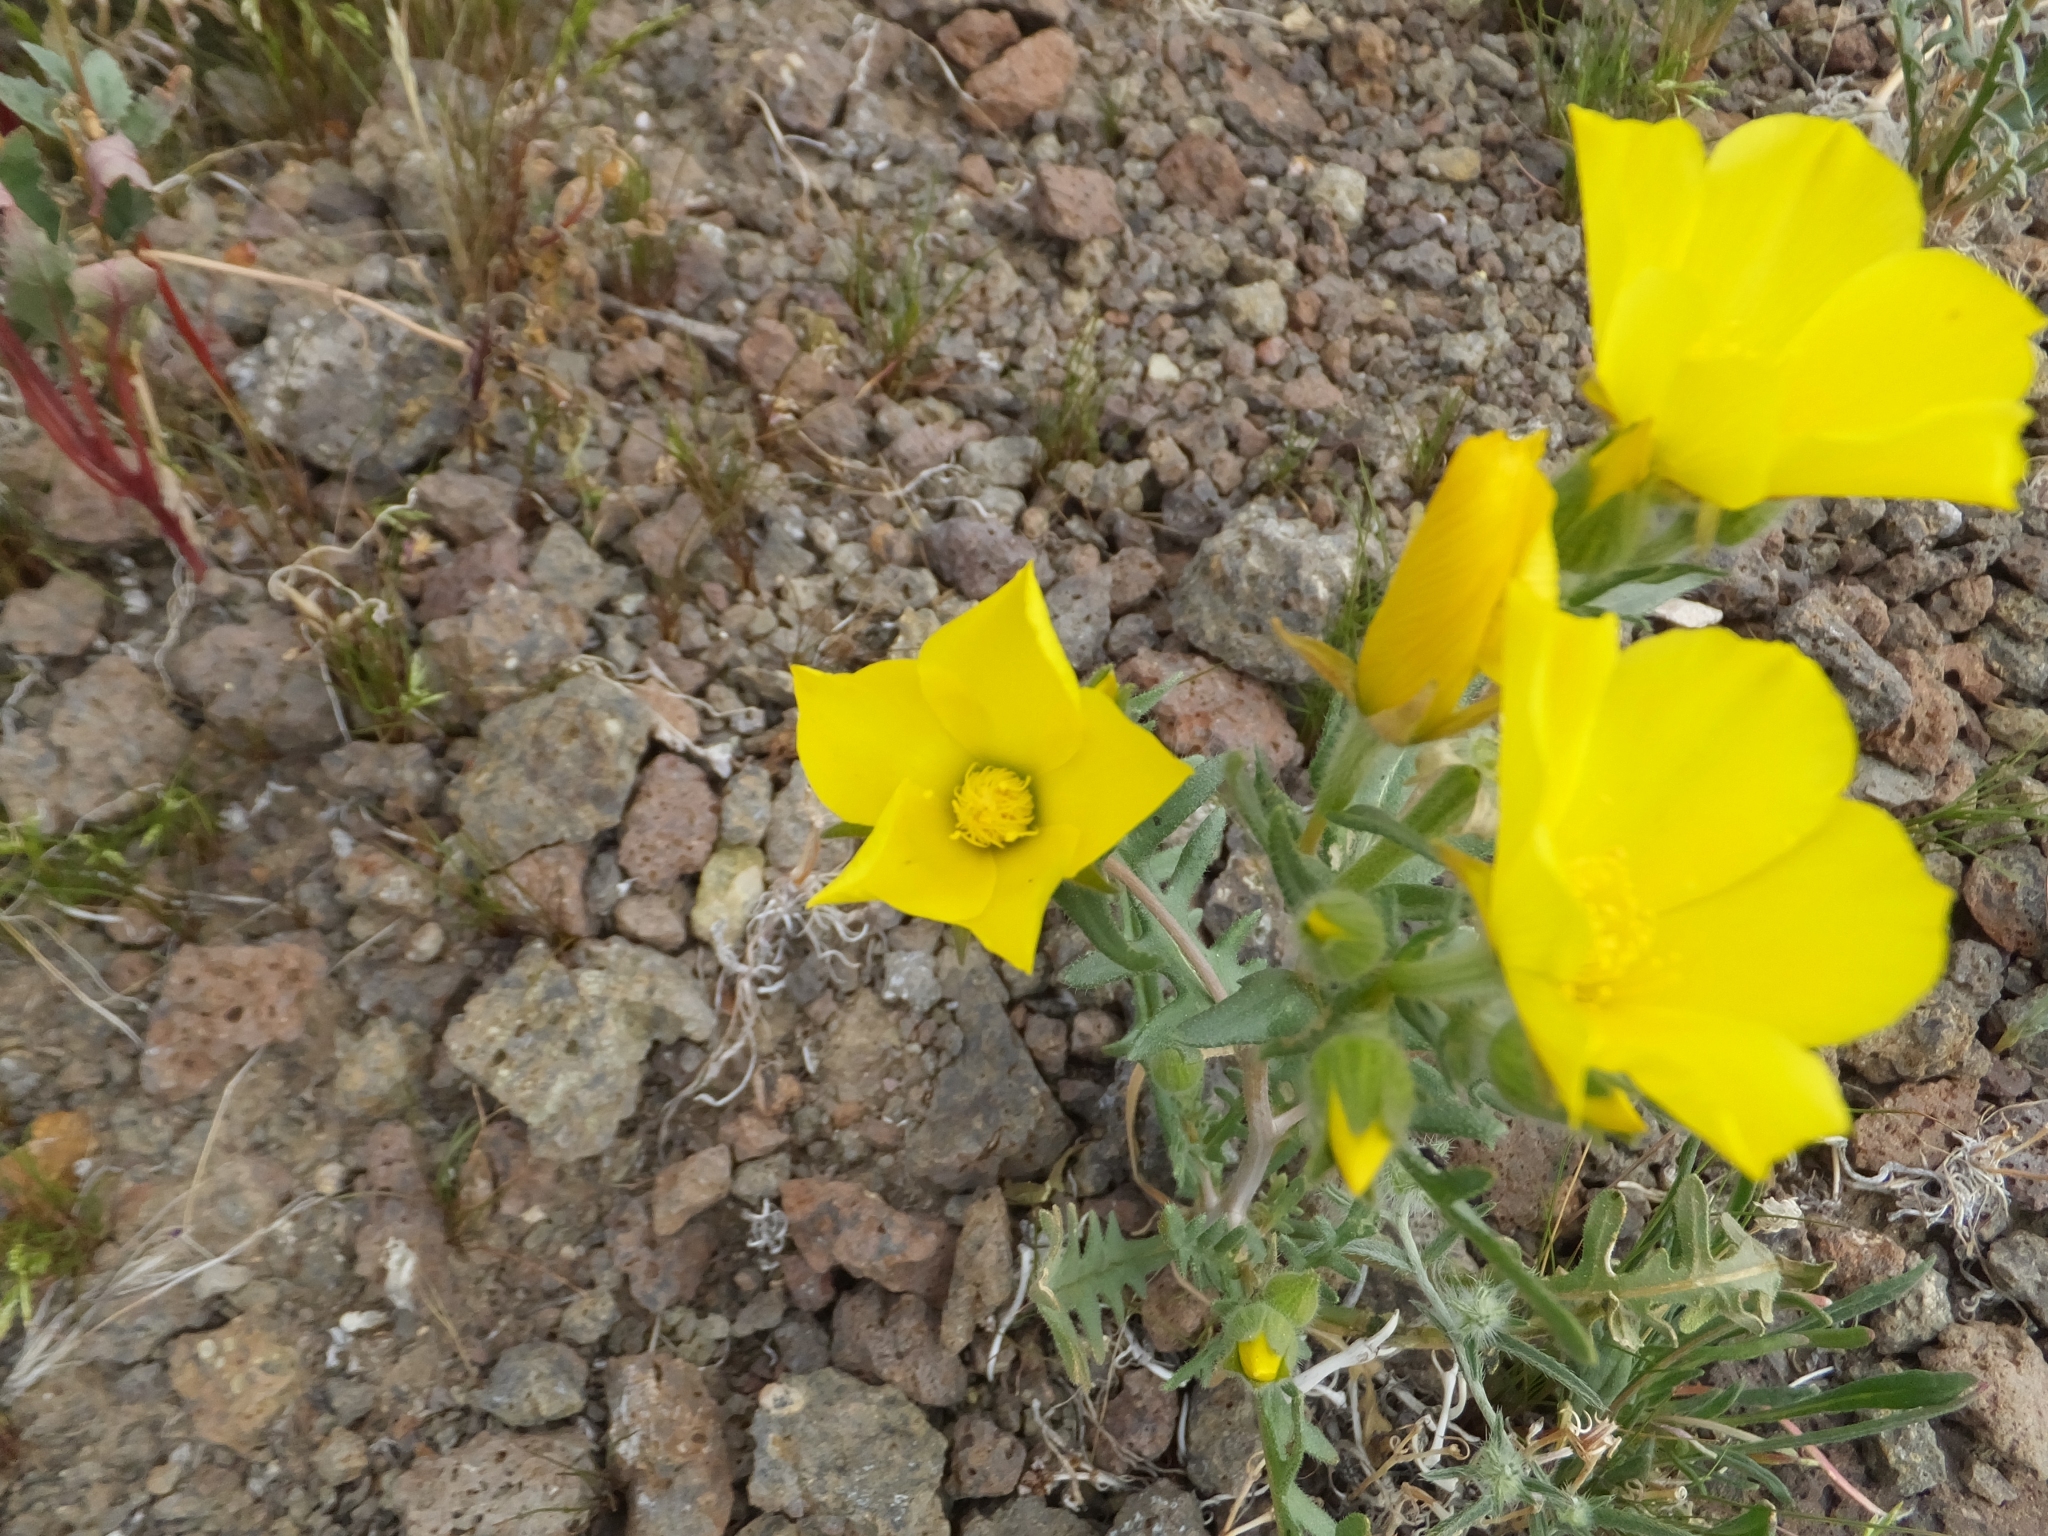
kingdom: Plantae
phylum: Tracheophyta
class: Magnoliopsida
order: Cornales
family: Loasaceae
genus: Mentzelia
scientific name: Mentzelia nitens
